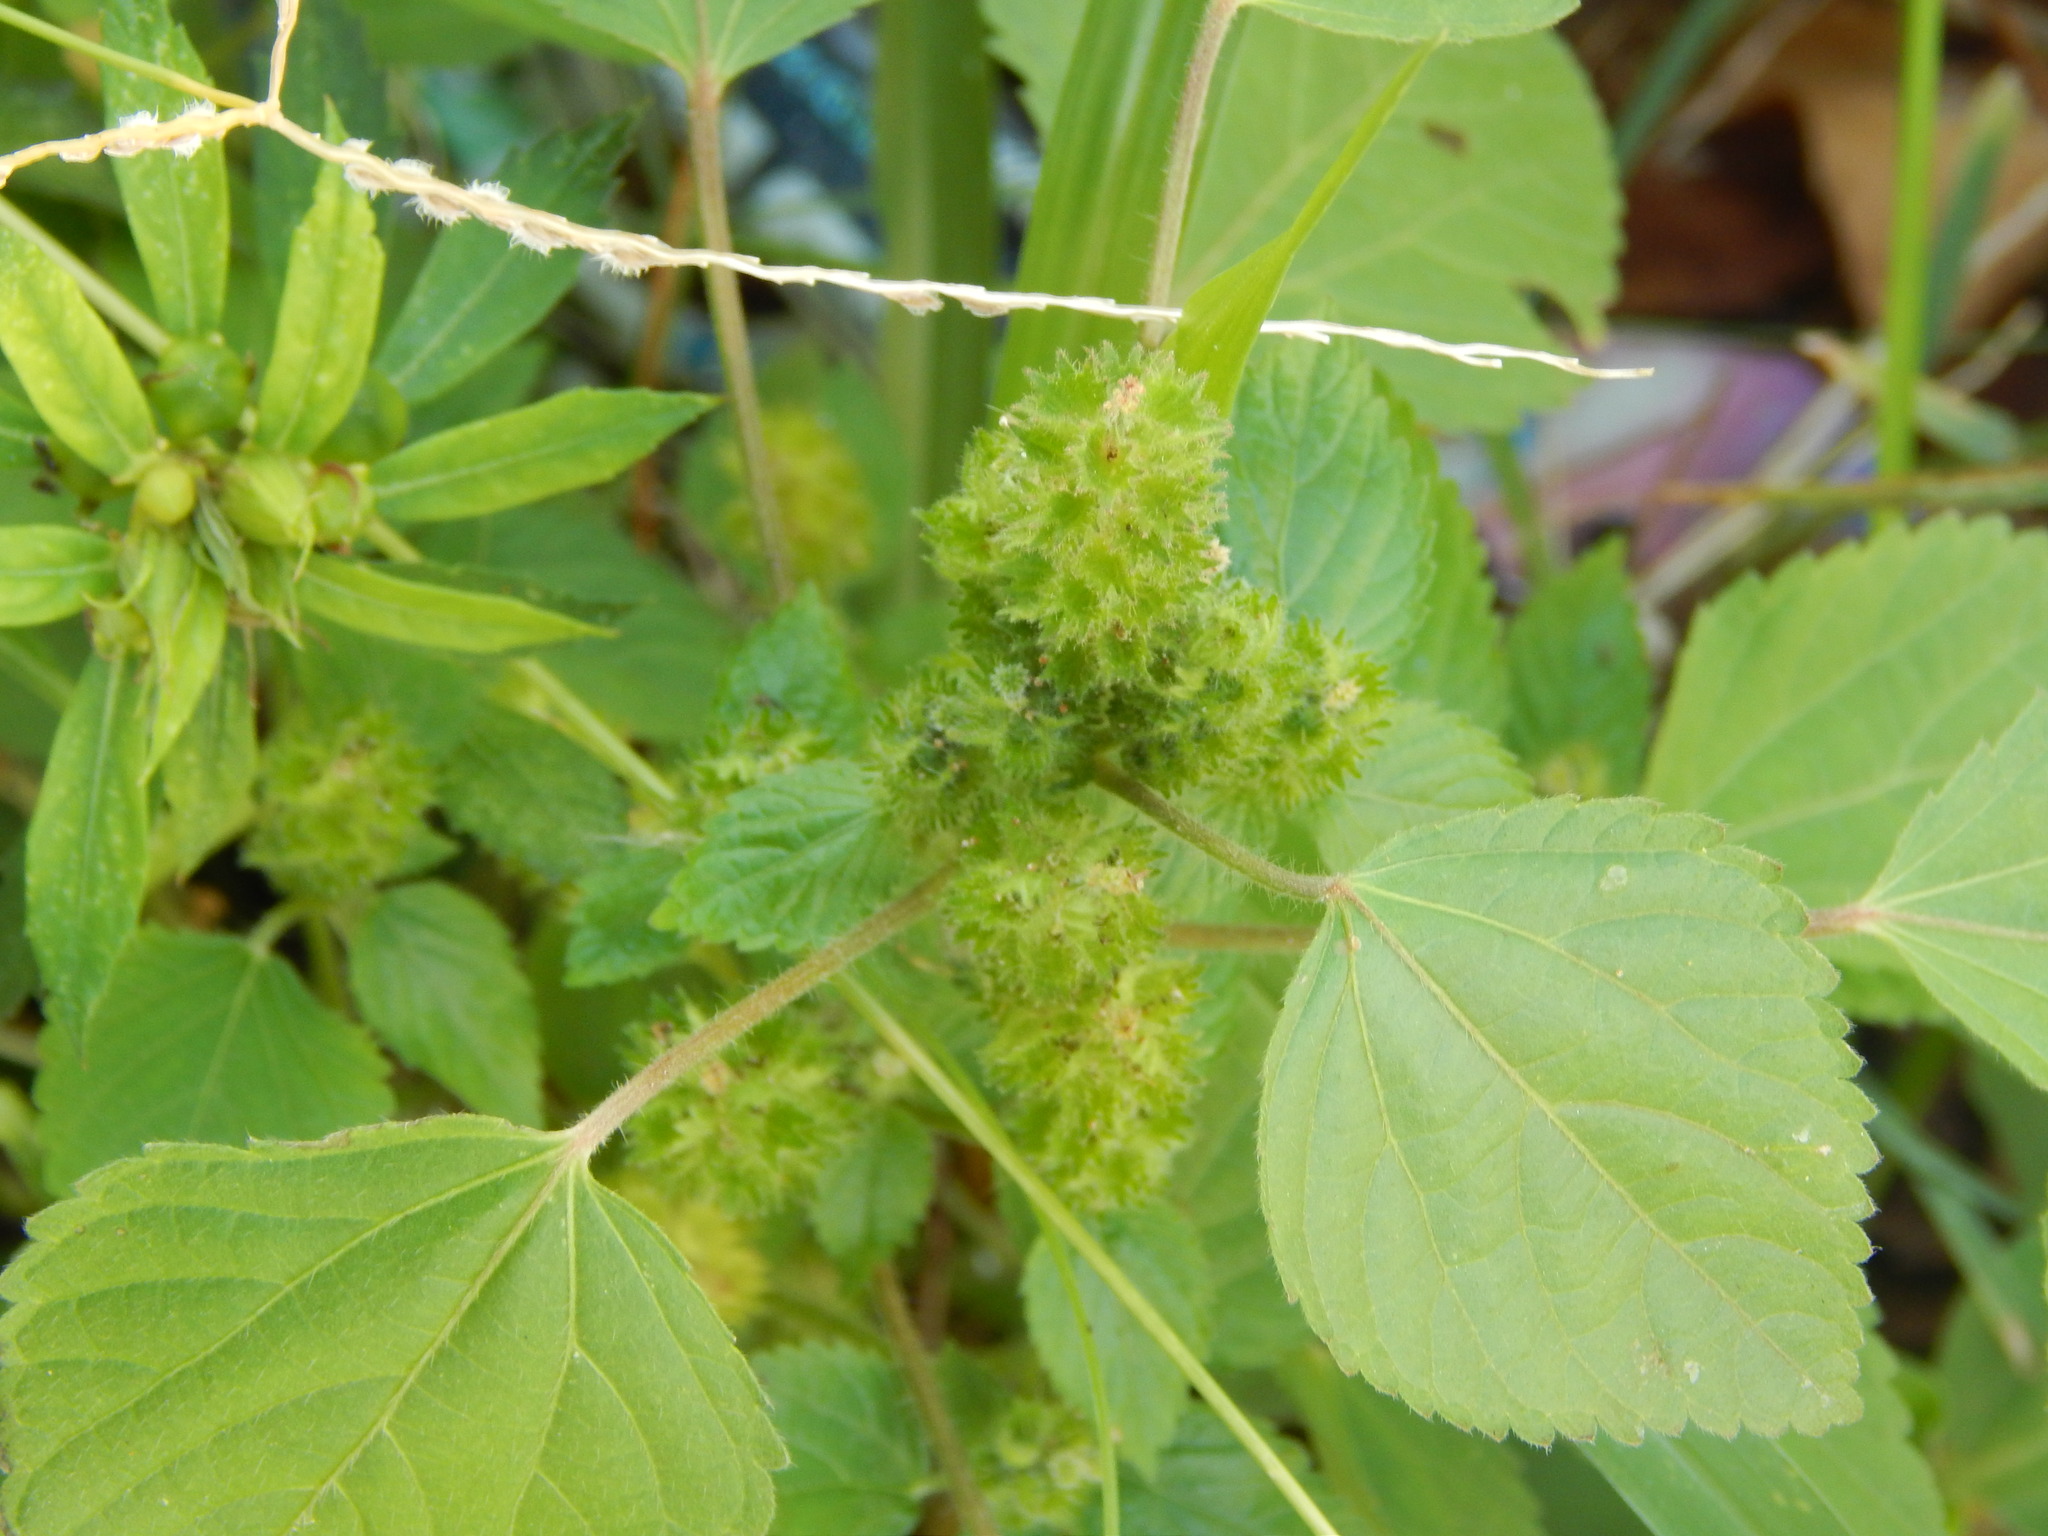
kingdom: Plantae
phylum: Tracheophyta
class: Magnoliopsida
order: Malpighiales
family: Euphorbiaceae
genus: Acalypha
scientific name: Acalypha poiretii
